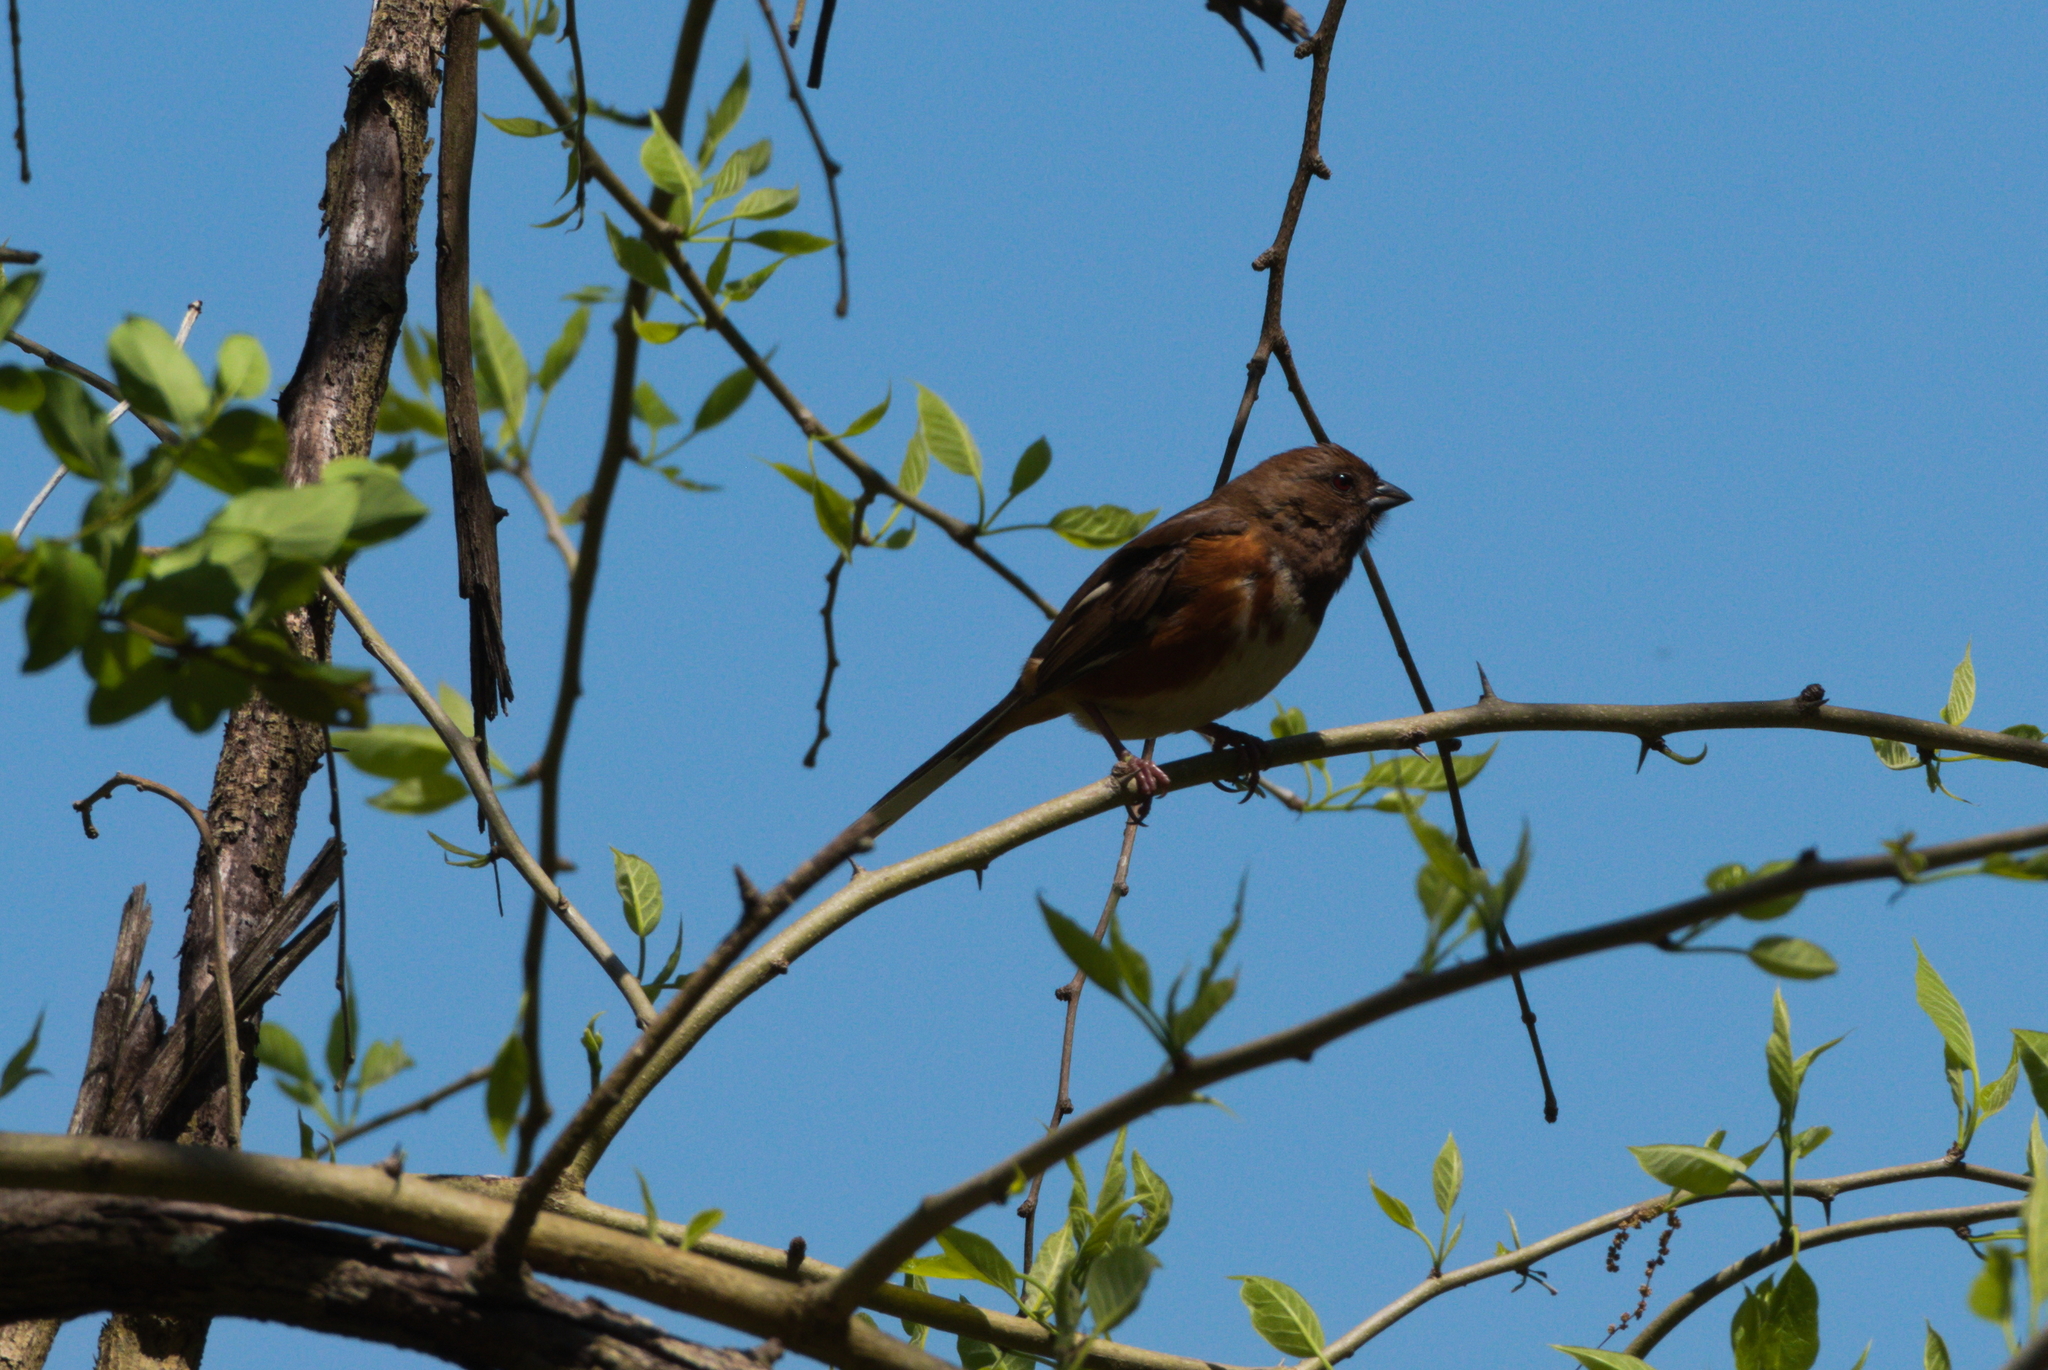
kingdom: Animalia
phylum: Chordata
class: Aves
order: Passeriformes
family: Passerellidae
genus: Pipilo
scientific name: Pipilo erythrophthalmus
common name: Eastern towhee
